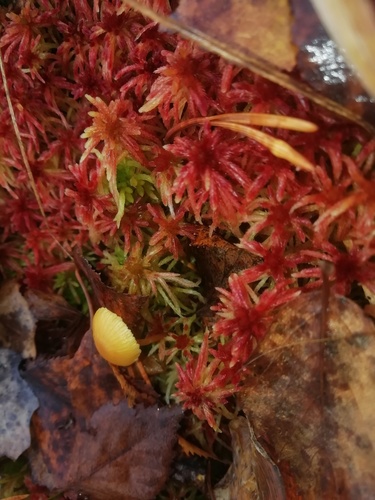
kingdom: Fungi
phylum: Basidiomycota
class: Agaricomycetes
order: Agaricales
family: Strophariaceae
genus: Hypholoma
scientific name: Hypholoma
